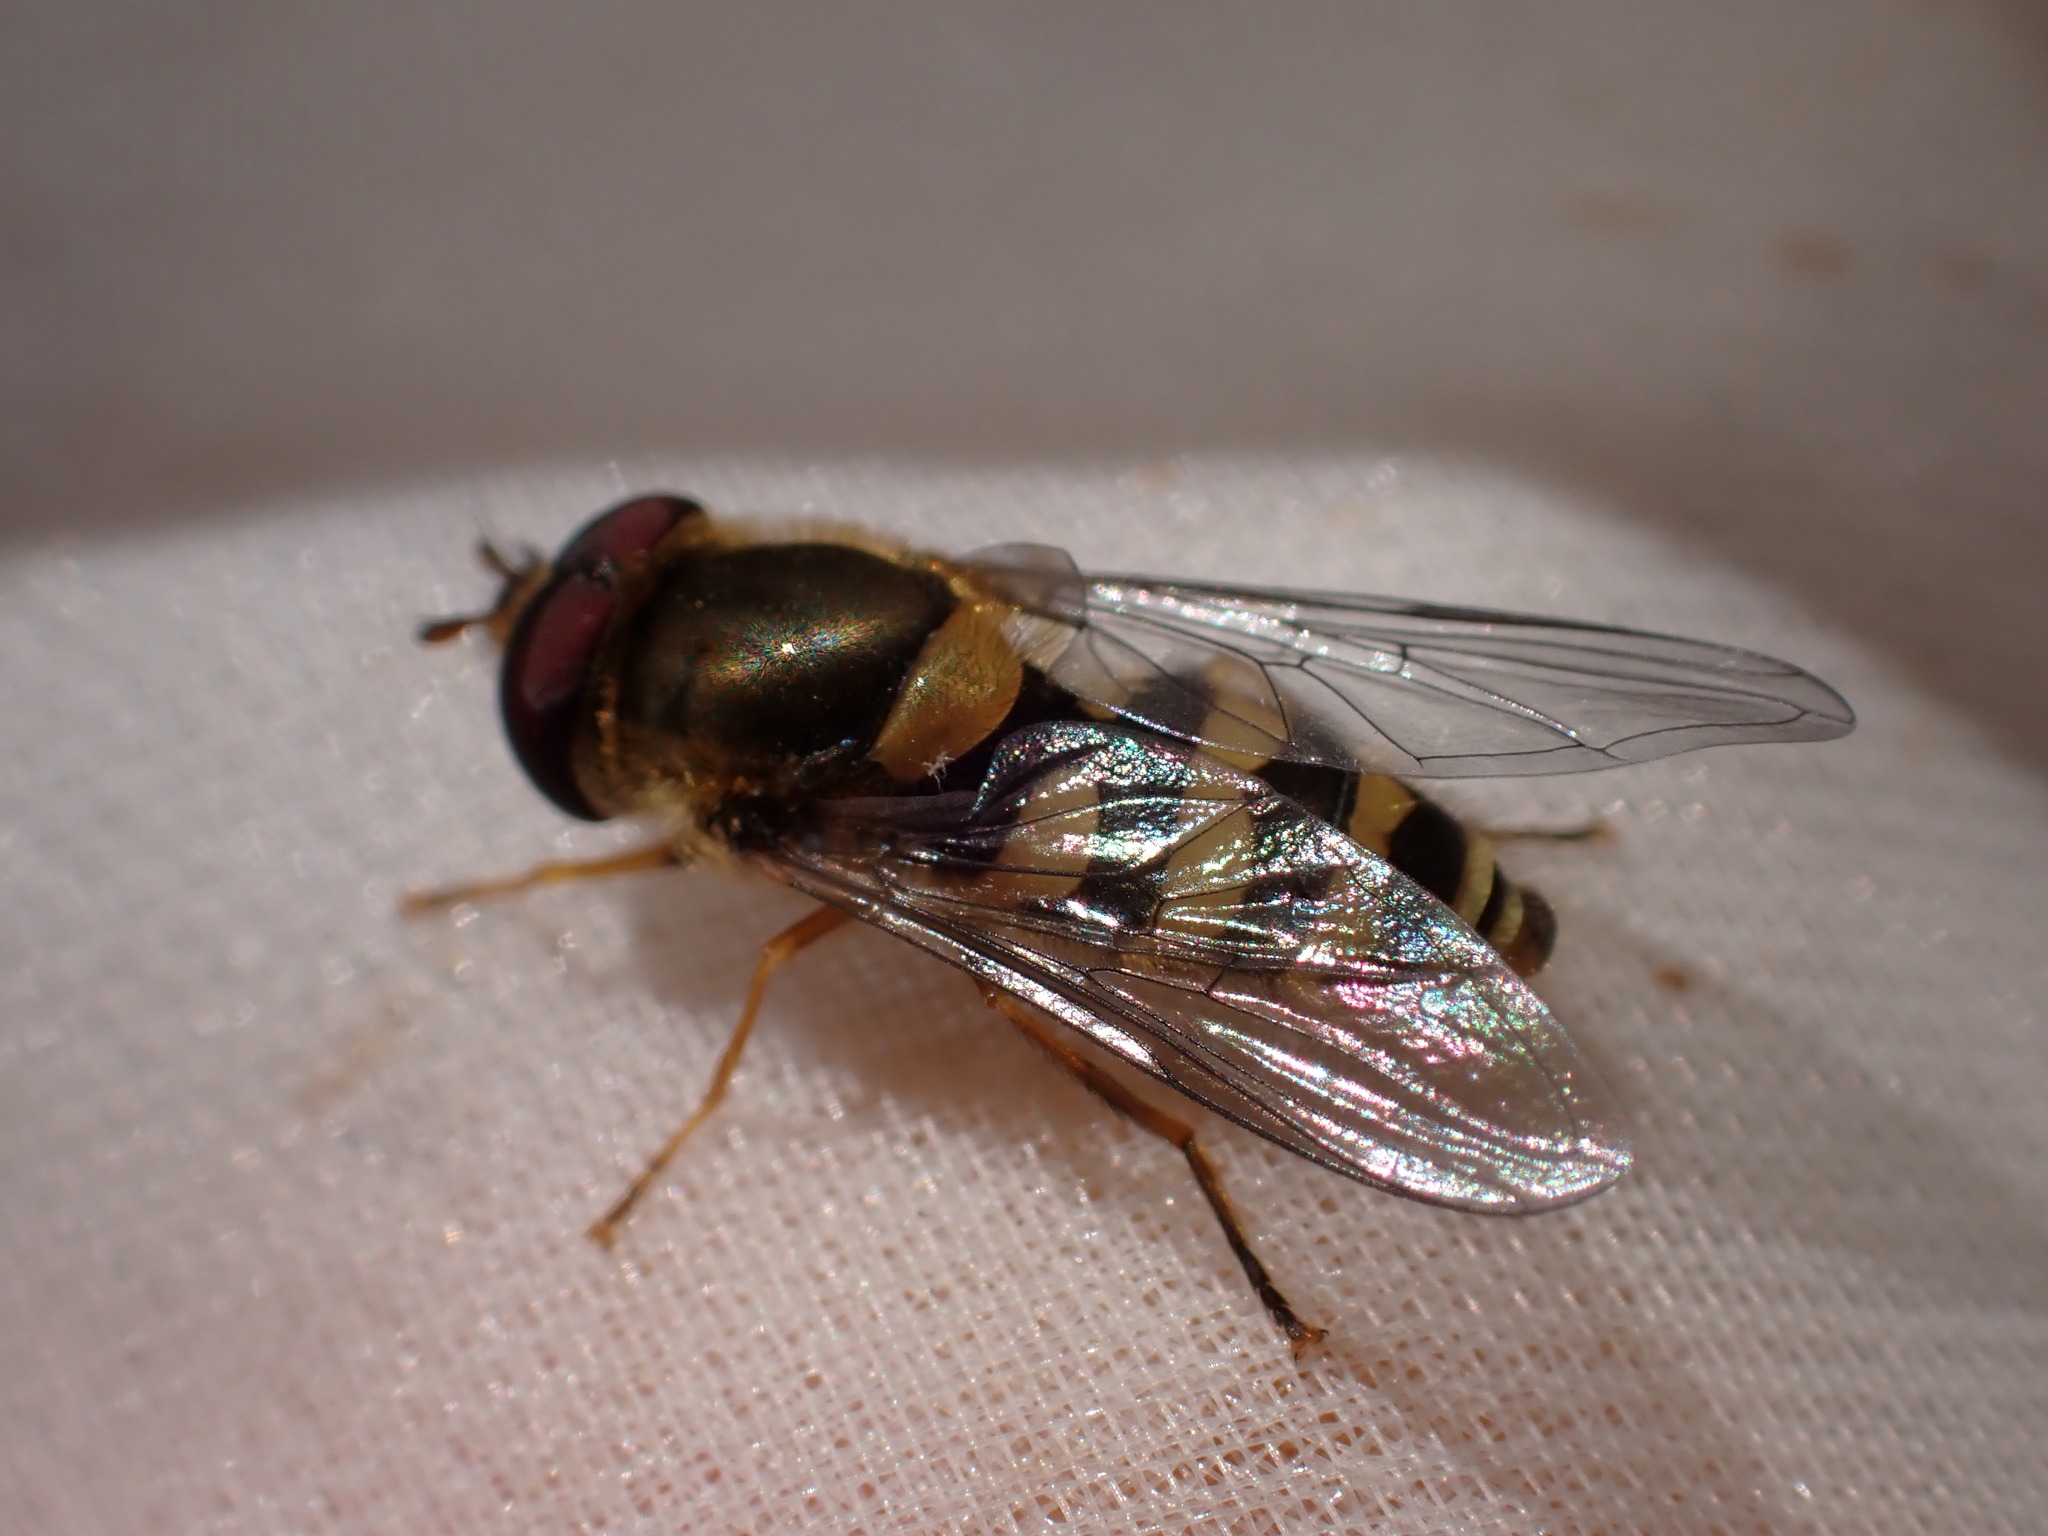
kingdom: Animalia
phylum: Arthropoda
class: Insecta
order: Diptera
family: Syrphidae
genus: Syrphus
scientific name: Syrphus
